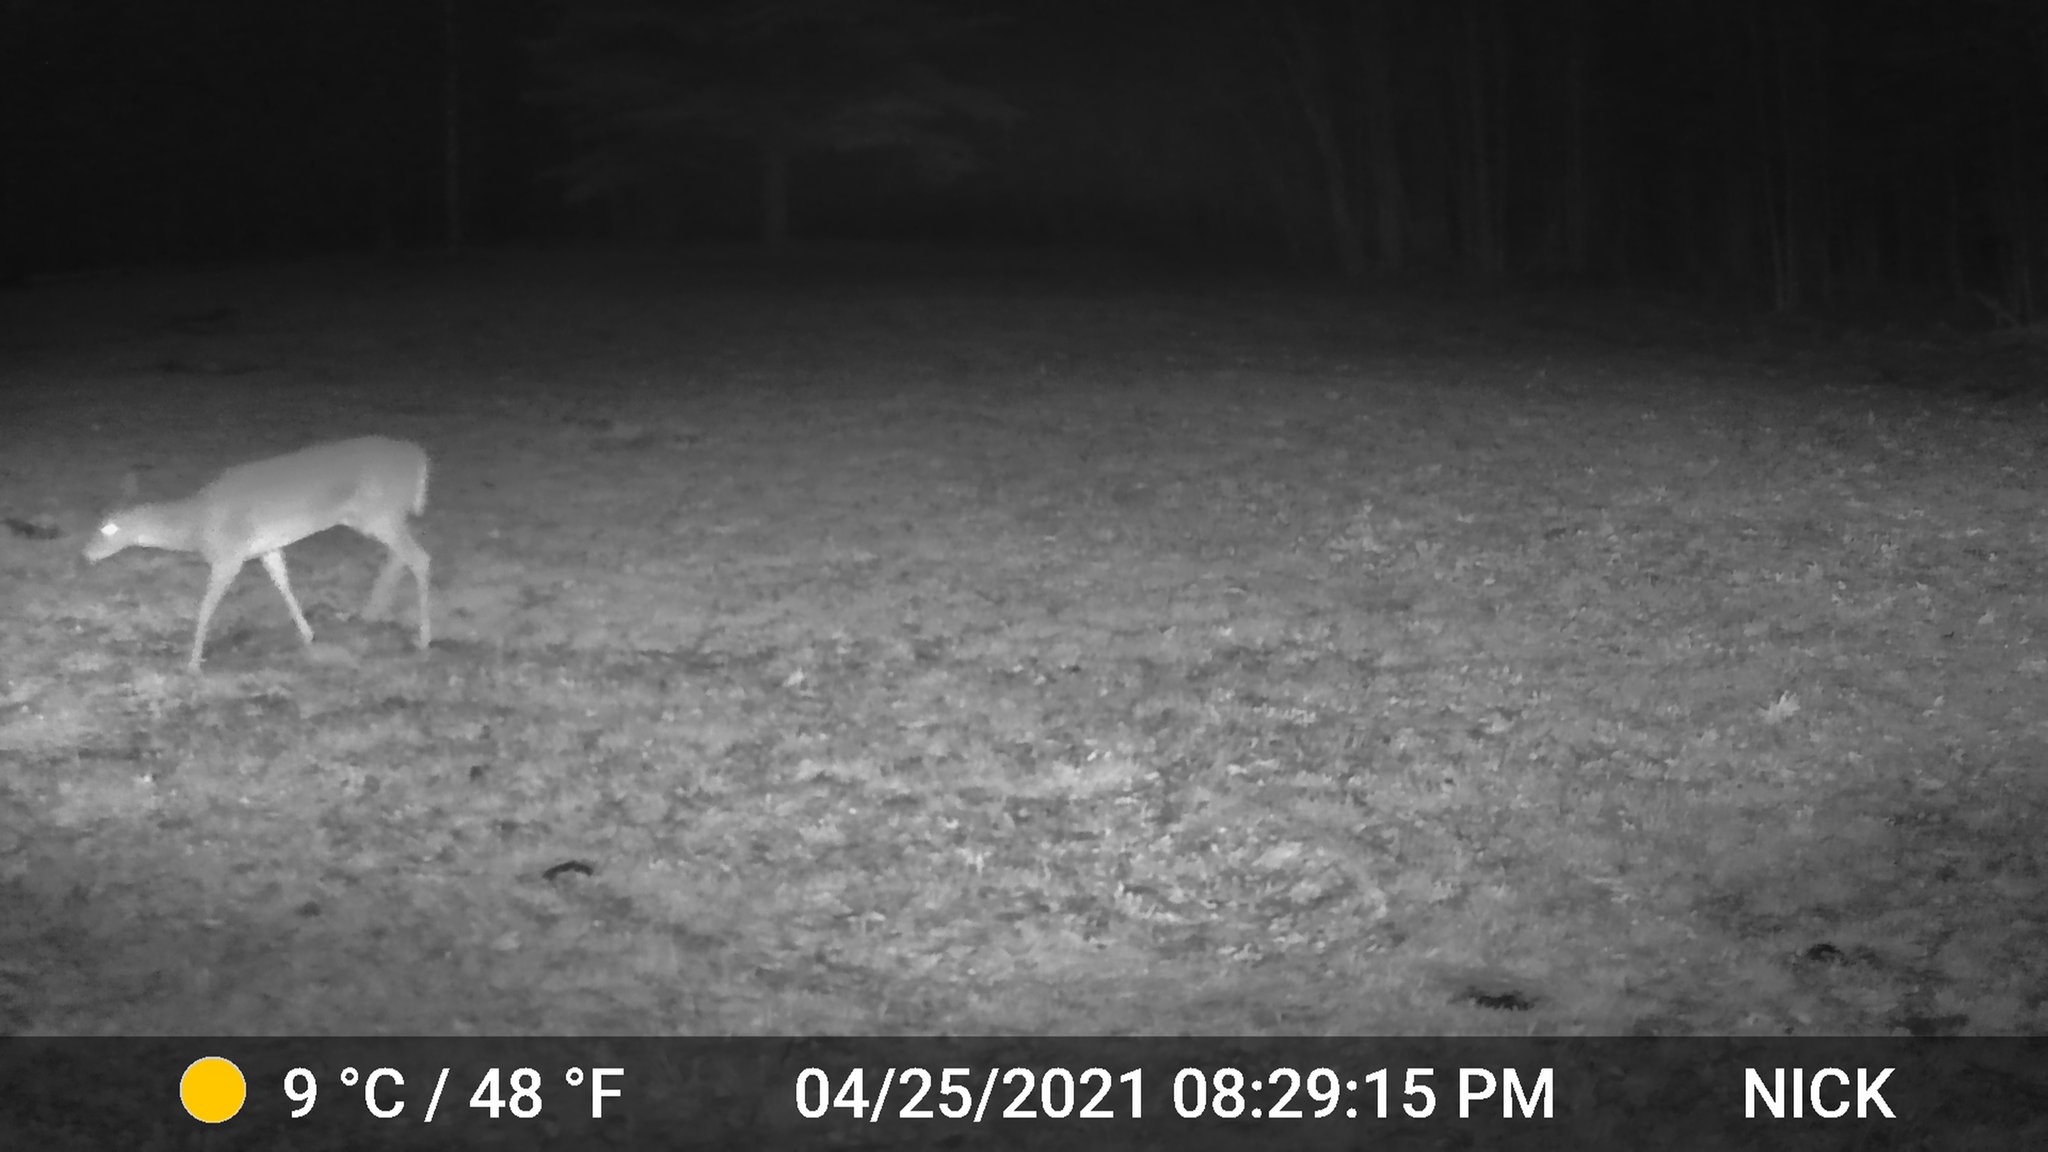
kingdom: Animalia
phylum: Chordata
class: Mammalia
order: Artiodactyla
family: Cervidae
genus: Odocoileus
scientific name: Odocoileus virginianus
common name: White-tailed deer
